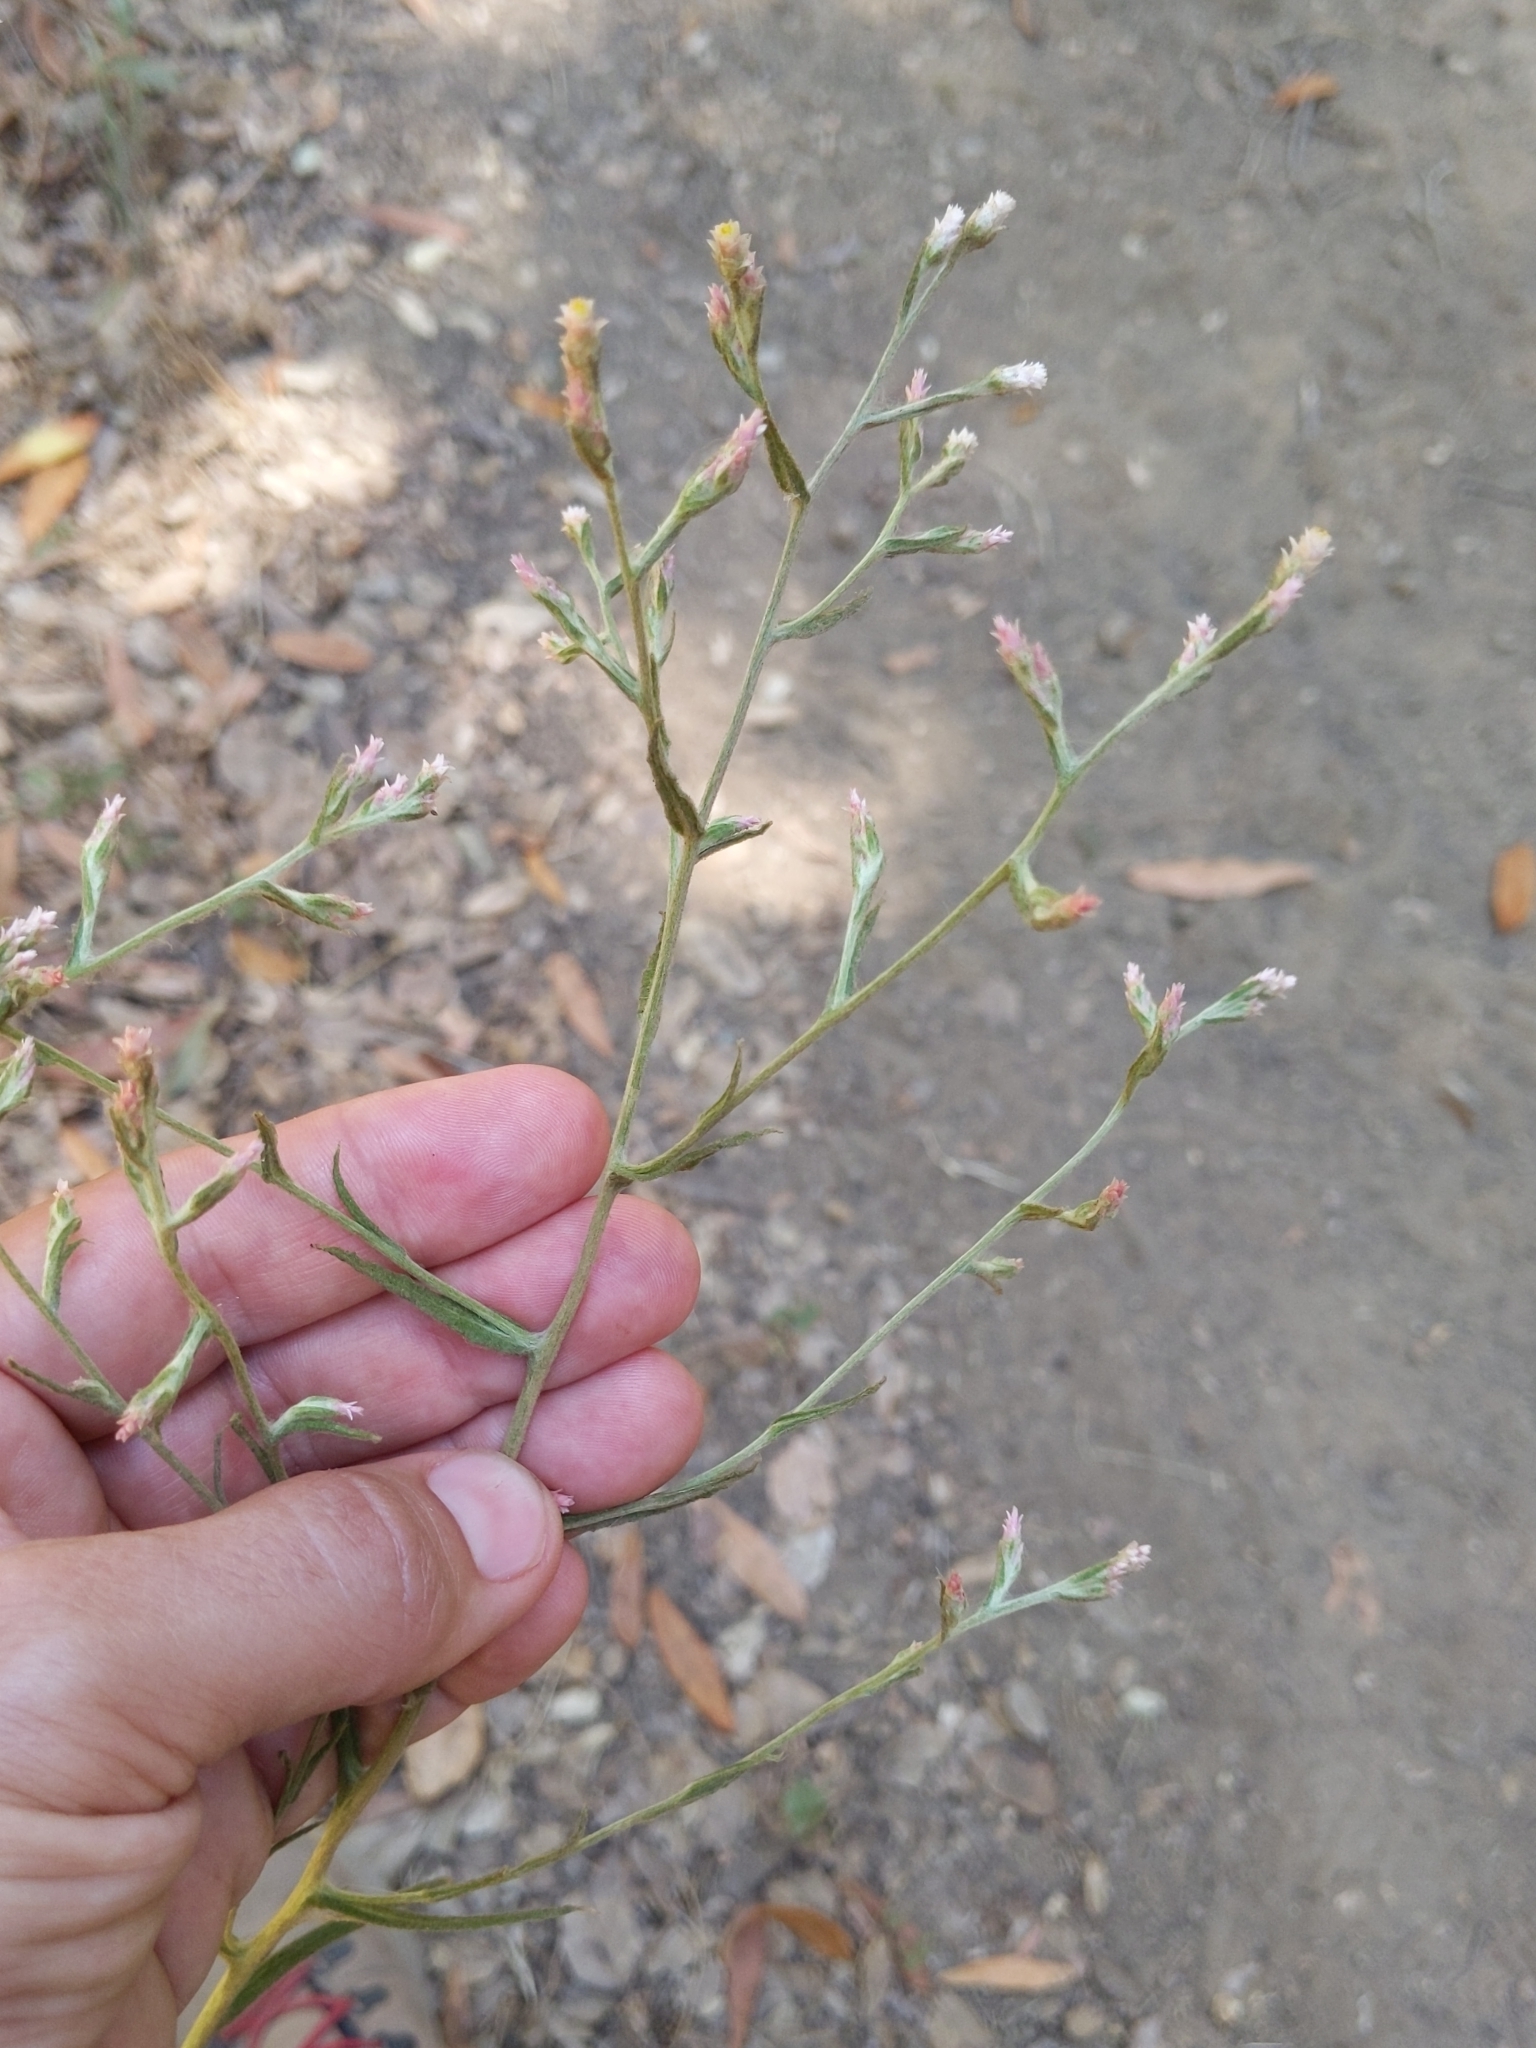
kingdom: Plantae
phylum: Tracheophyta
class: Magnoliopsida
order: Asterales
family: Asteraceae
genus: Pseudognaphalium
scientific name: Pseudognaphalium ramosissimum
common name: Pink rabbit-tobacco
